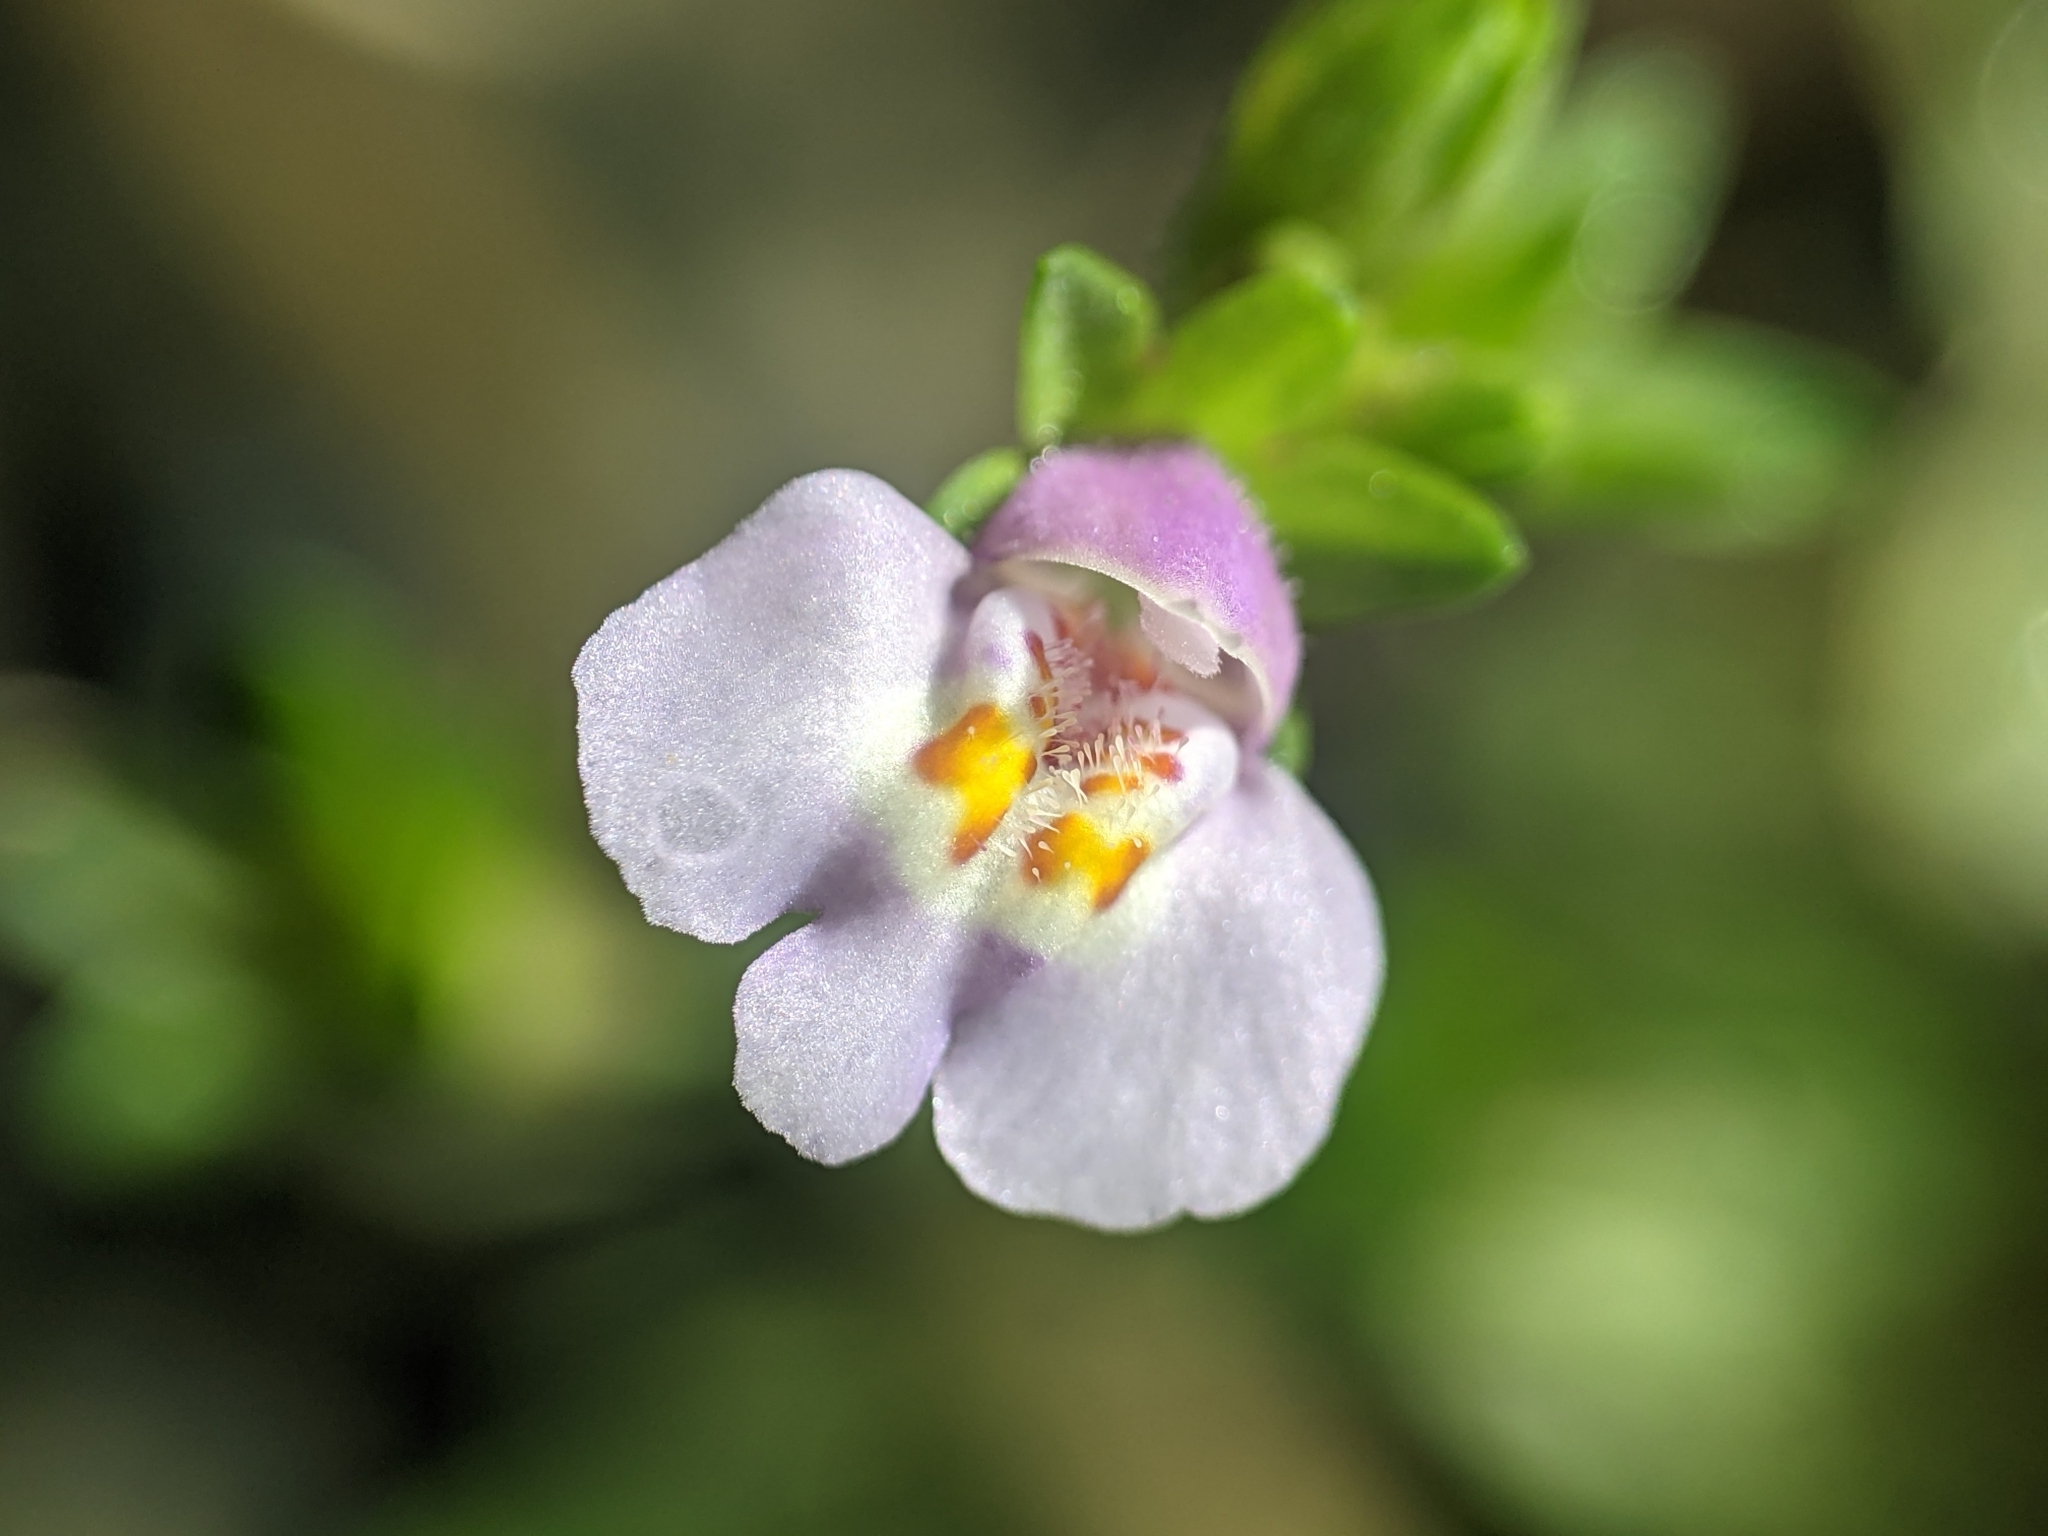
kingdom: Plantae
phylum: Tracheophyta
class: Magnoliopsida
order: Lamiales
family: Mazaceae
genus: Mazus
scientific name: Mazus pumilus
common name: Japanese mazus
